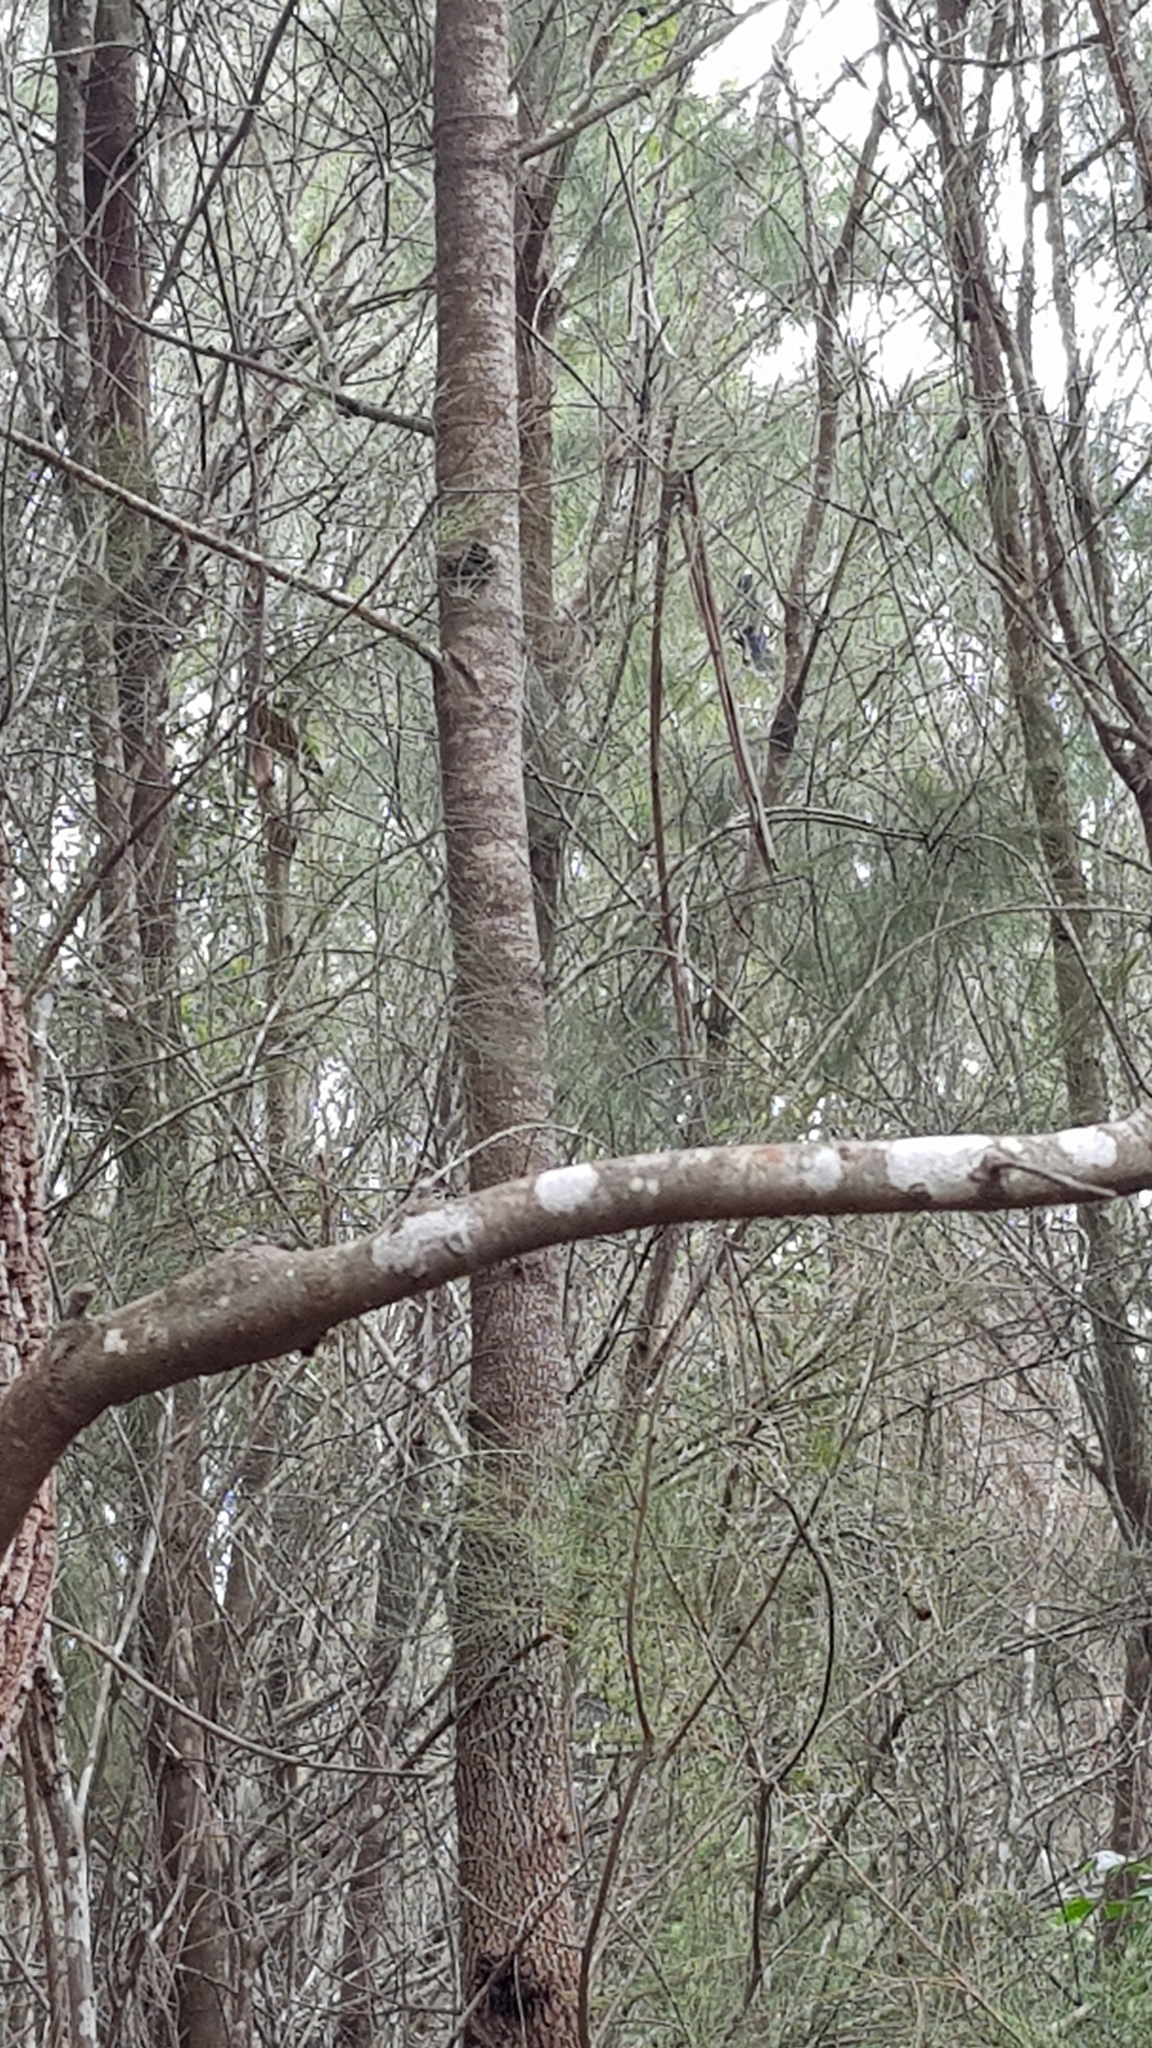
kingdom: Animalia
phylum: Chordata
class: Aves
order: Passeriformes
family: Cracticidae
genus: Strepera
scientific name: Strepera graculina
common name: Pied currawong
